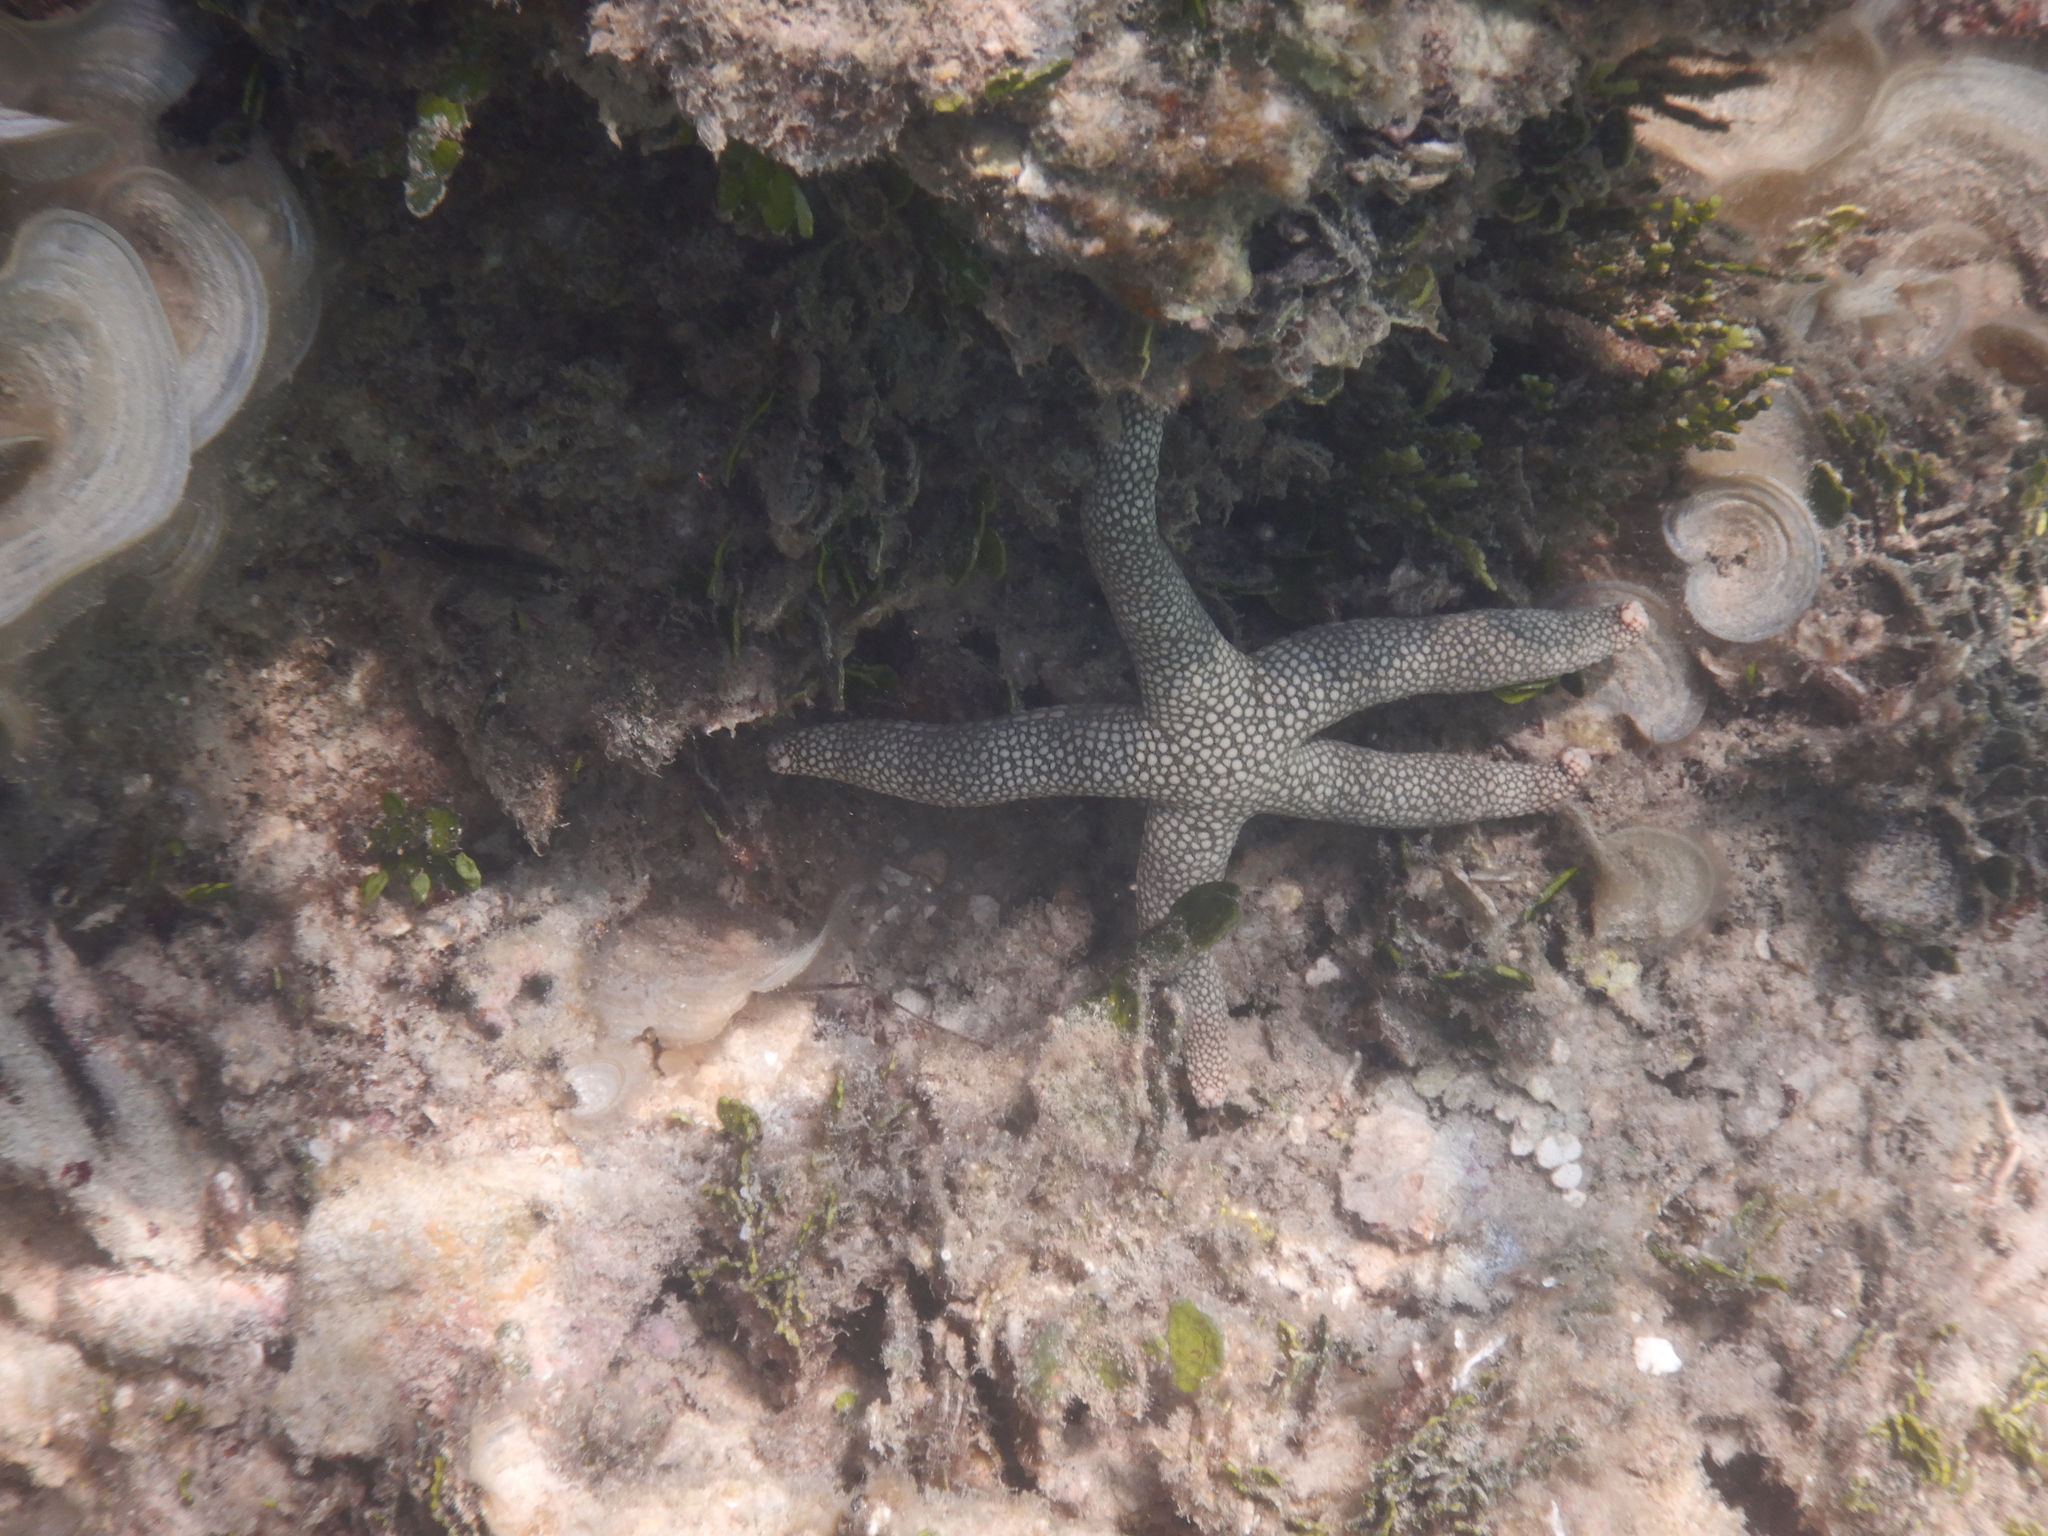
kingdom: Animalia
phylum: Echinodermata
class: Asteroidea
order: Valvatida
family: Ophidiasteridae
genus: Nardoa
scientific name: Nardoa tuberculata
